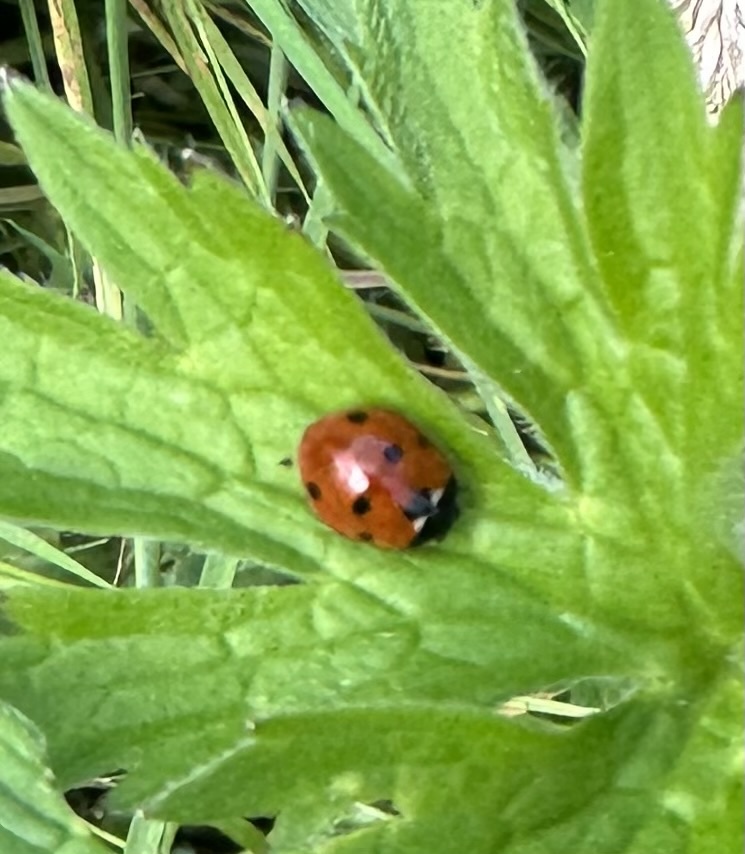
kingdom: Animalia
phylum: Arthropoda
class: Insecta
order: Coleoptera
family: Coccinellidae
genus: Coccinella
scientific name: Coccinella septempunctata
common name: Sevenspotted lady beetle
